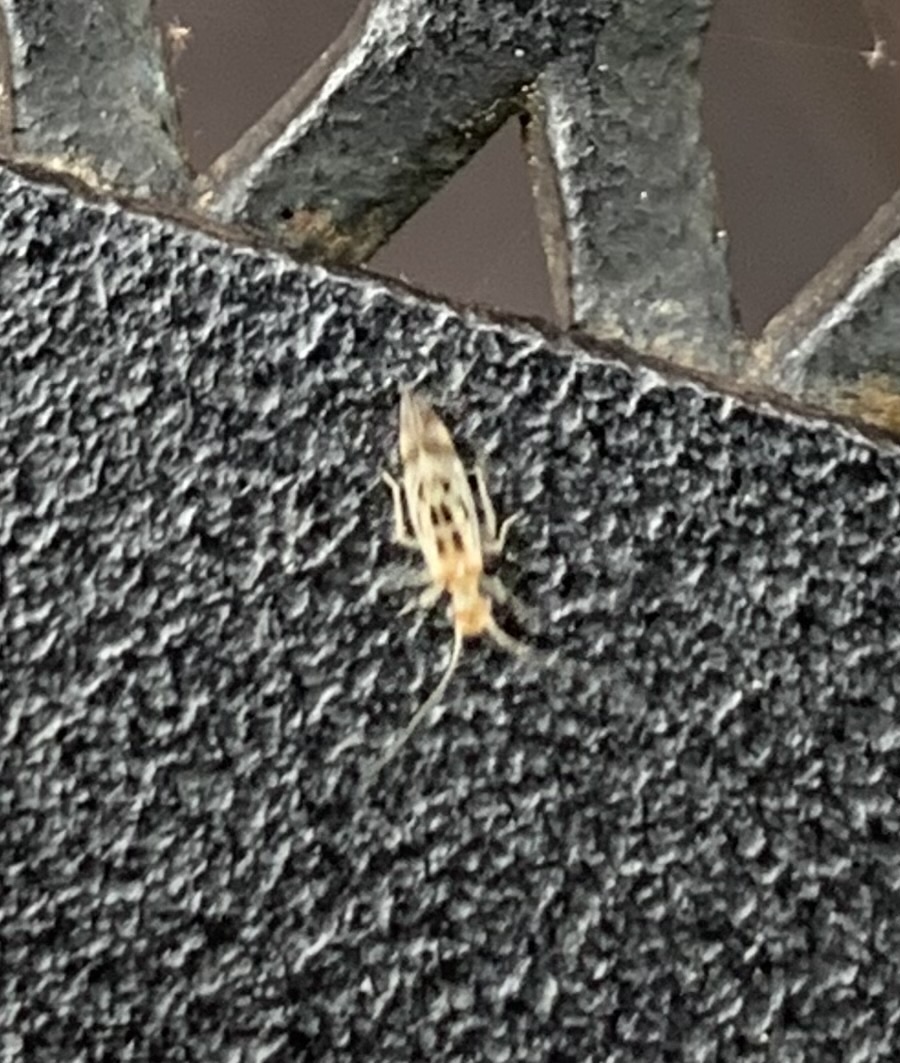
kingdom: Animalia
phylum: Arthropoda
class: Insecta
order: Psocodea
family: Stenopsocidae
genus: Graphopsocus
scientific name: Graphopsocus cruciatus
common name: Lizard bark louse
